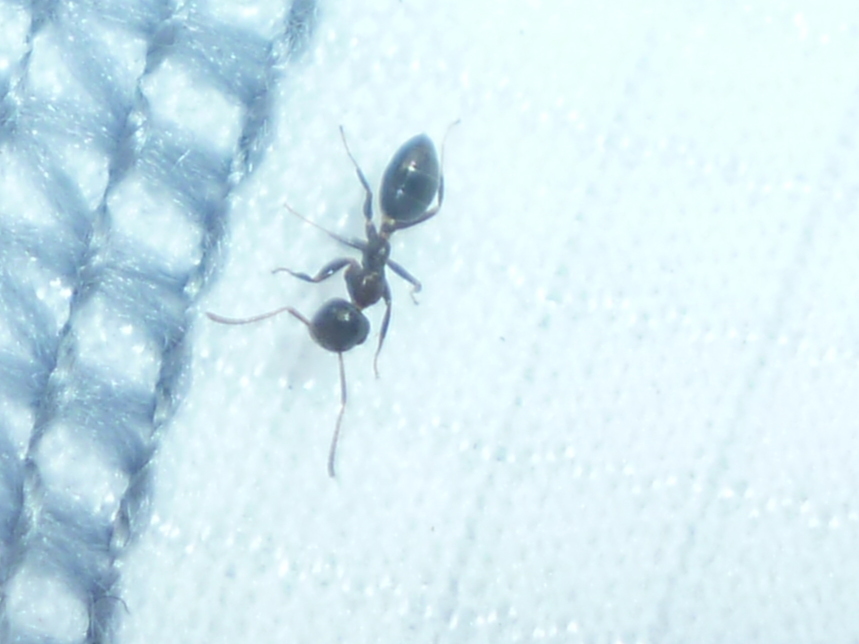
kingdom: Animalia
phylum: Arthropoda
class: Insecta
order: Hymenoptera
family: Formicidae
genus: Colobopsis
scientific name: Colobopsis impressa
